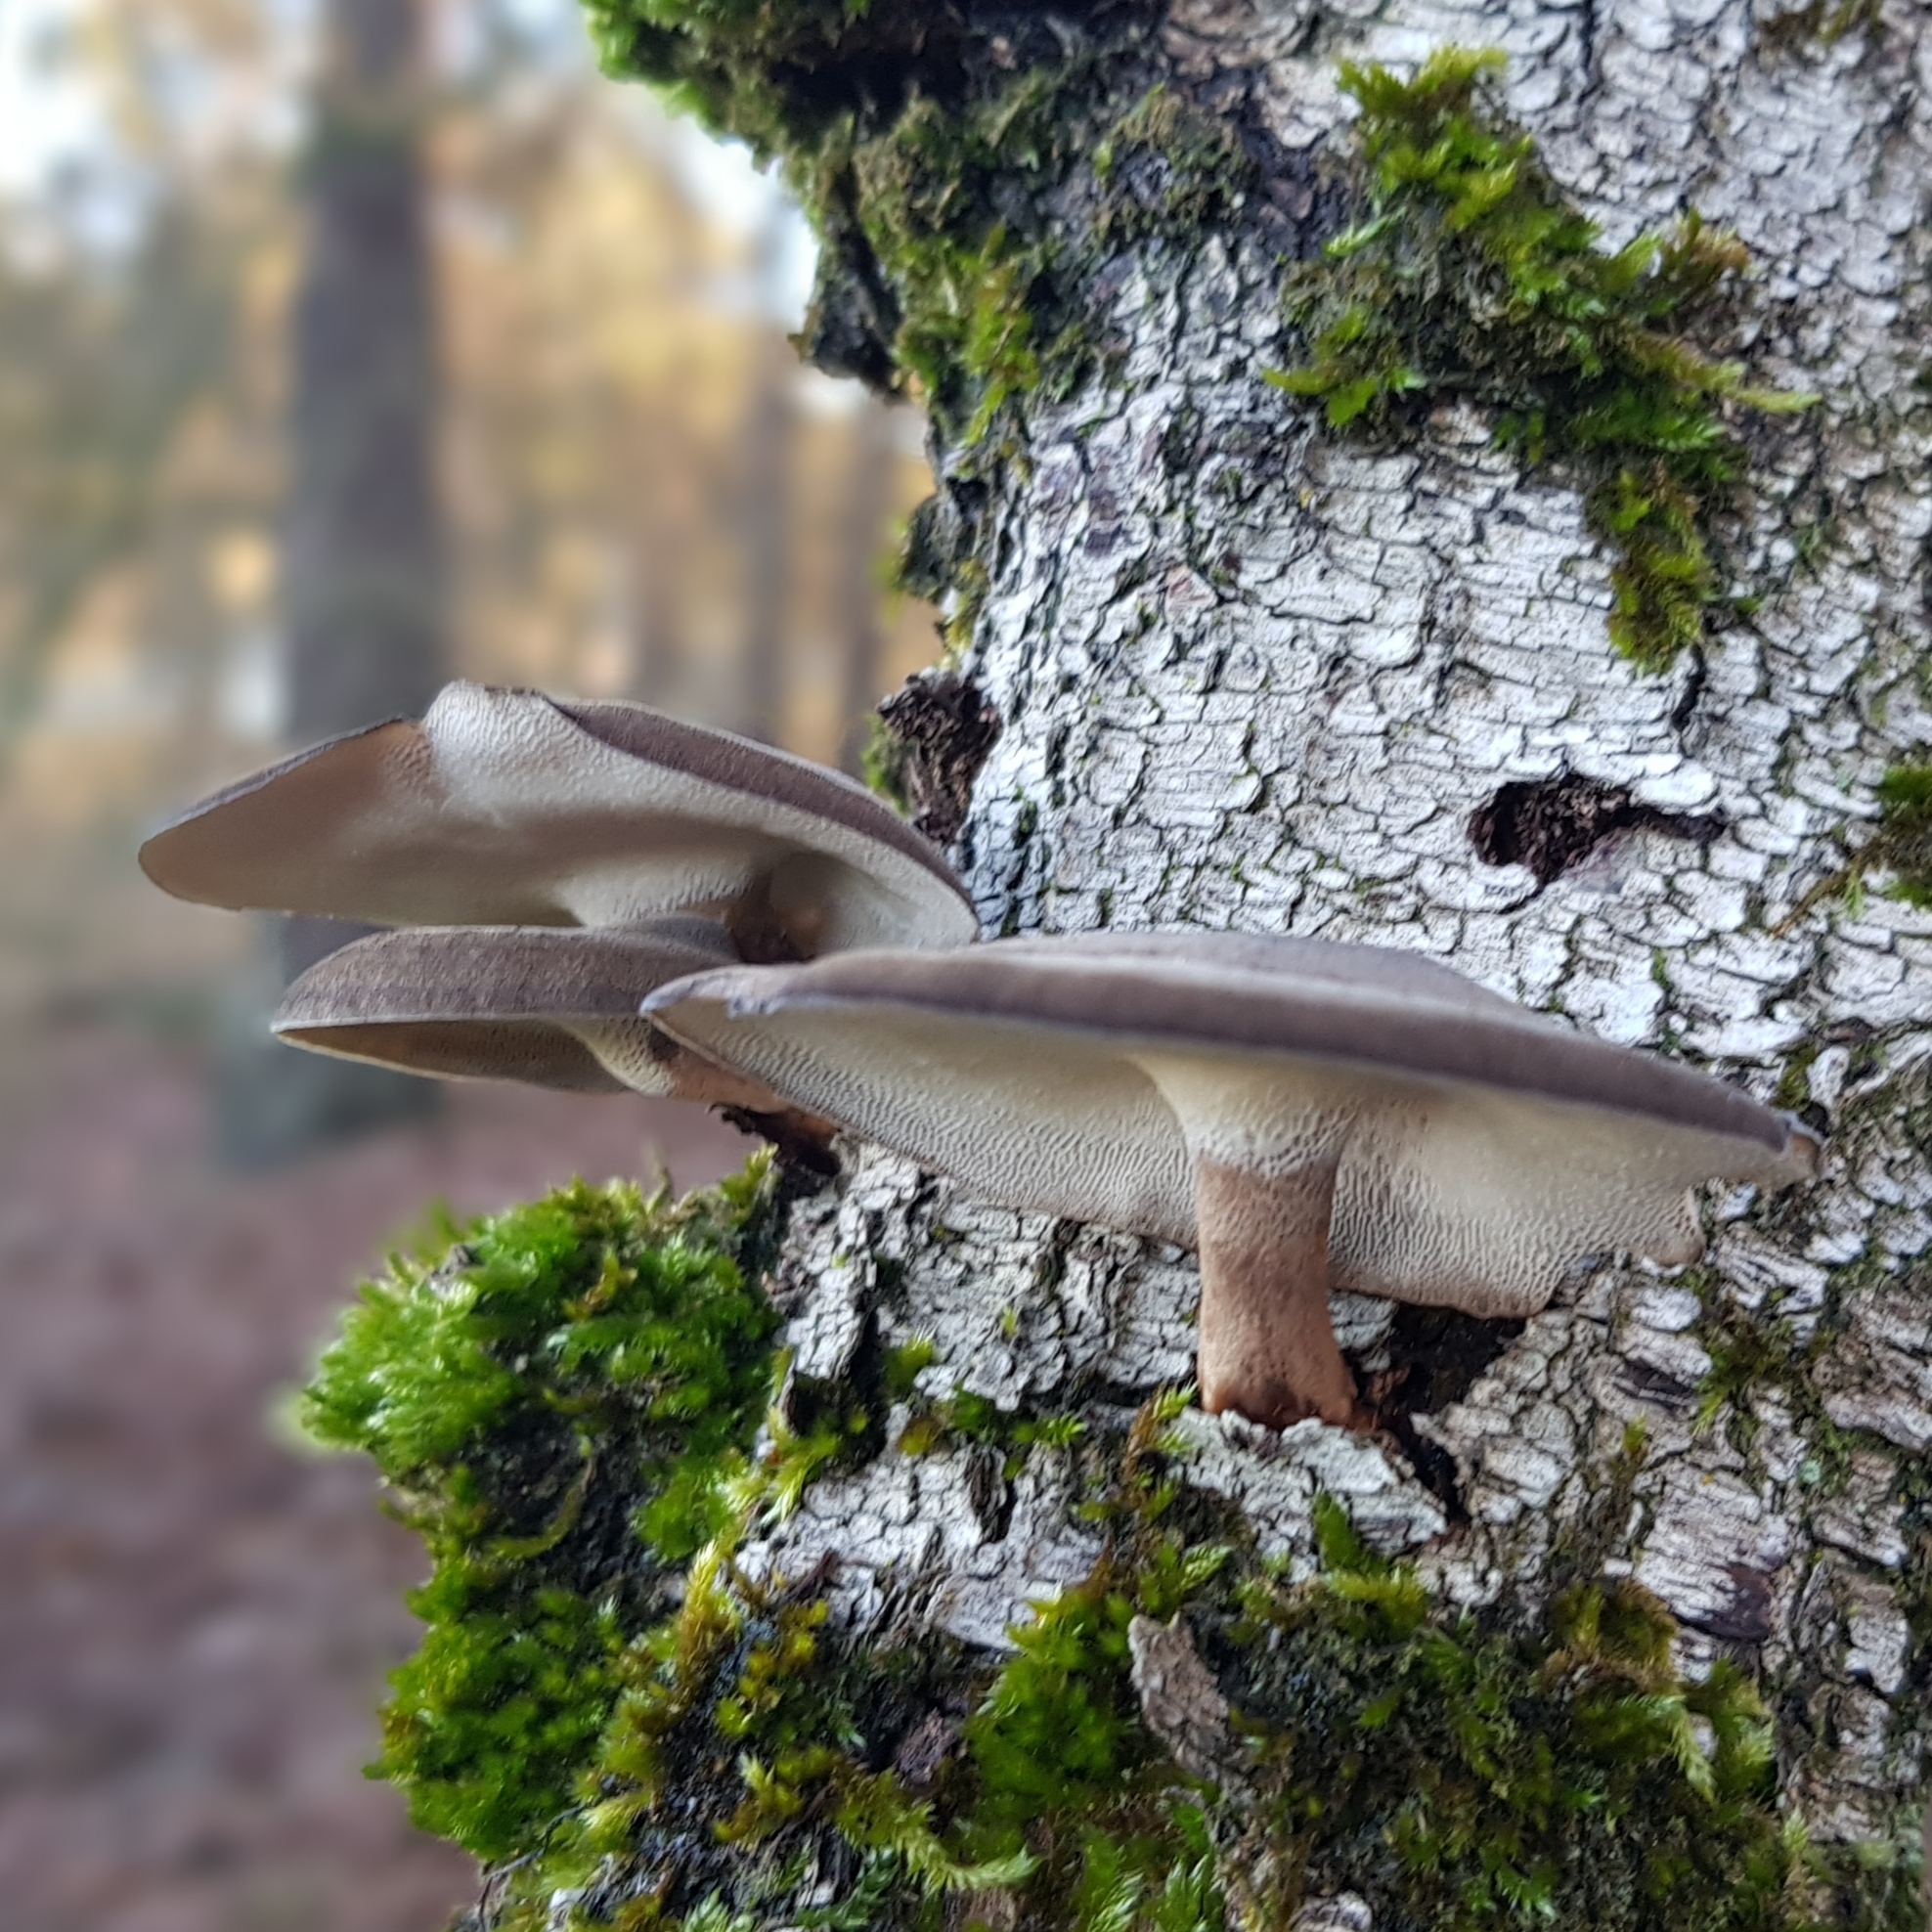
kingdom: Fungi
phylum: Basidiomycota
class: Agaricomycetes
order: Polyporales
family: Polyporaceae
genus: Lentinus
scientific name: Lentinus brumalis
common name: Winter polypore
